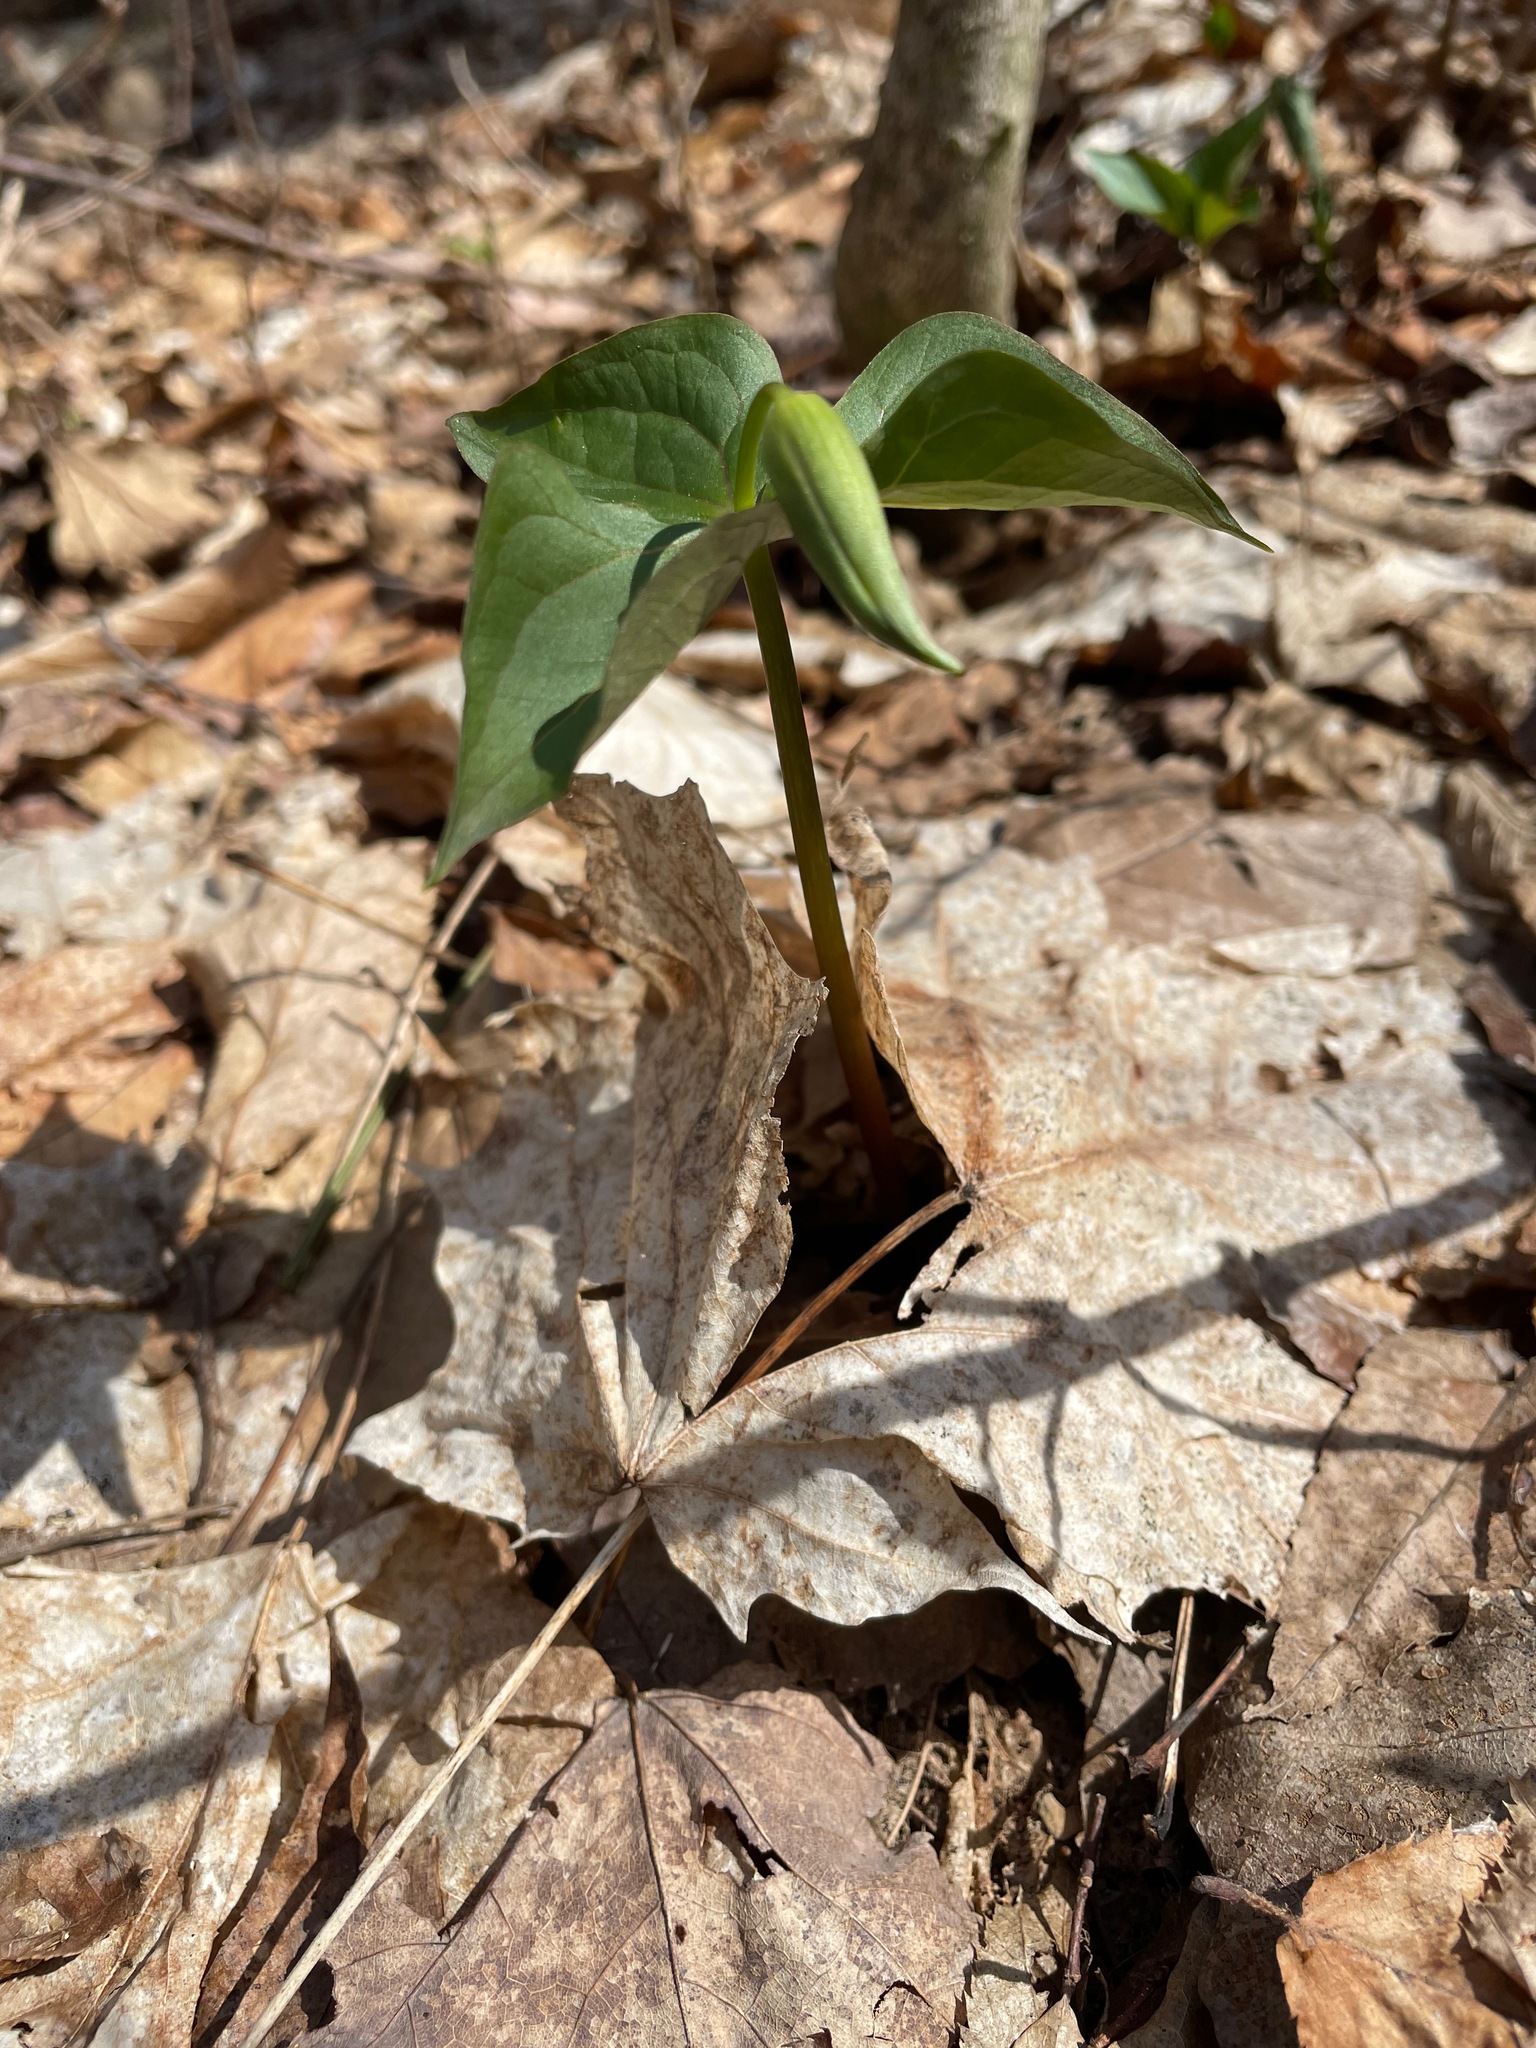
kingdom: Plantae
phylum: Tracheophyta
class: Liliopsida
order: Liliales
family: Melanthiaceae
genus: Trillium
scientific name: Trillium erectum
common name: Purple trillium
